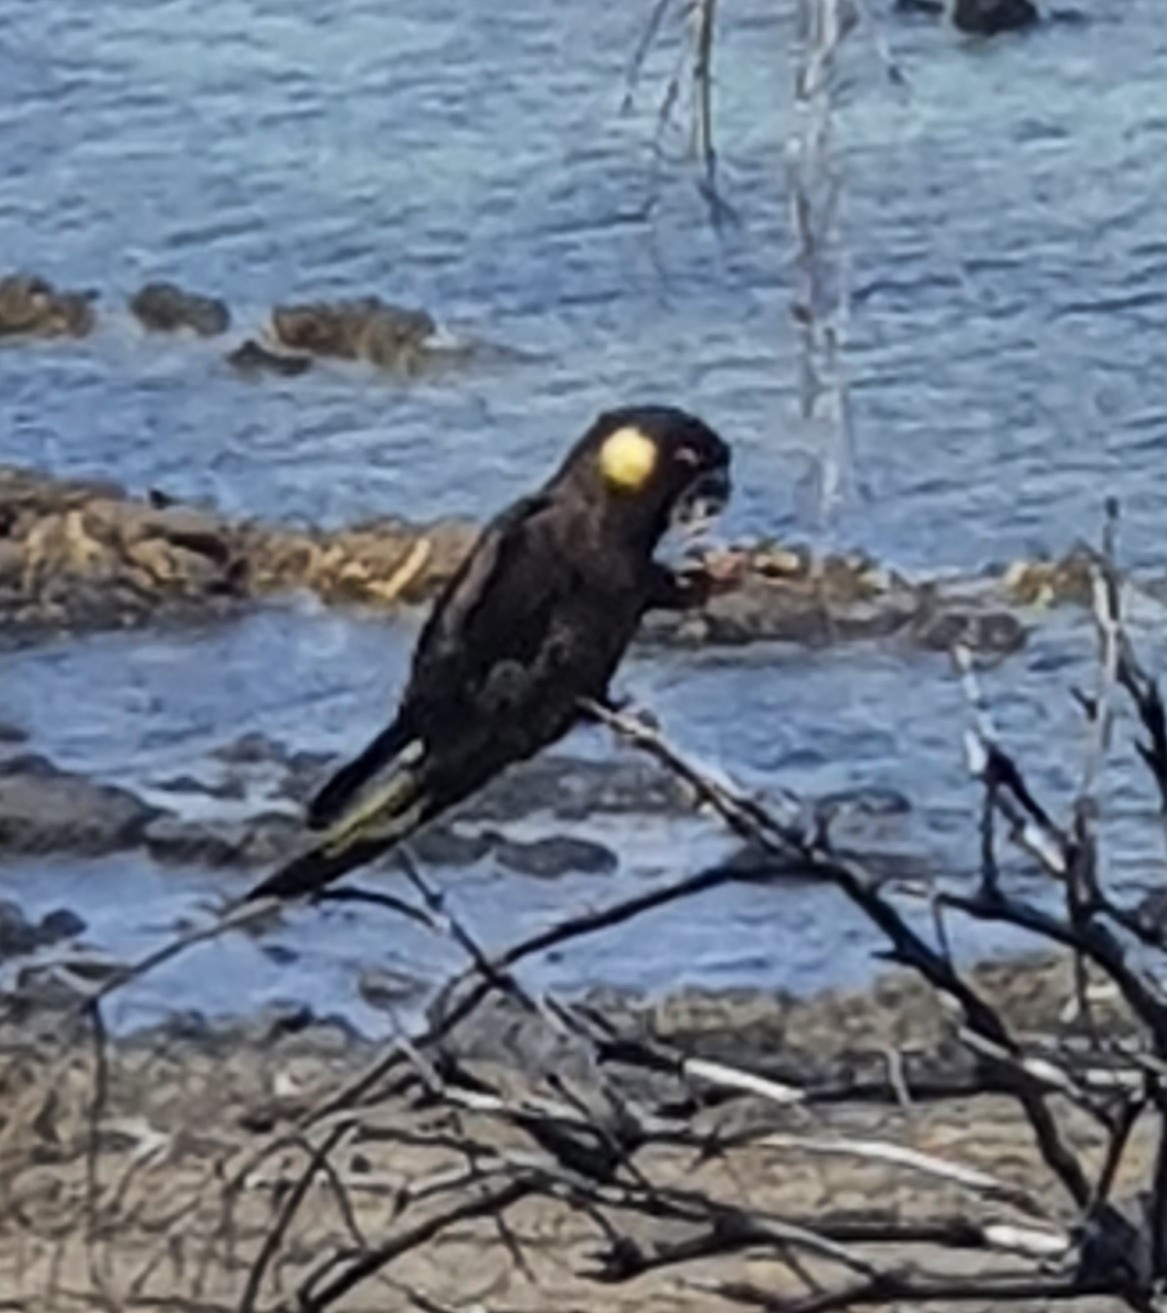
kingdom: Animalia
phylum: Chordata
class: Aves
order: Psittaciformes
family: Cacatuidae
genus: Zanda
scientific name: Zanda funerea
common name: Yellow-tailed black-cockatoo
